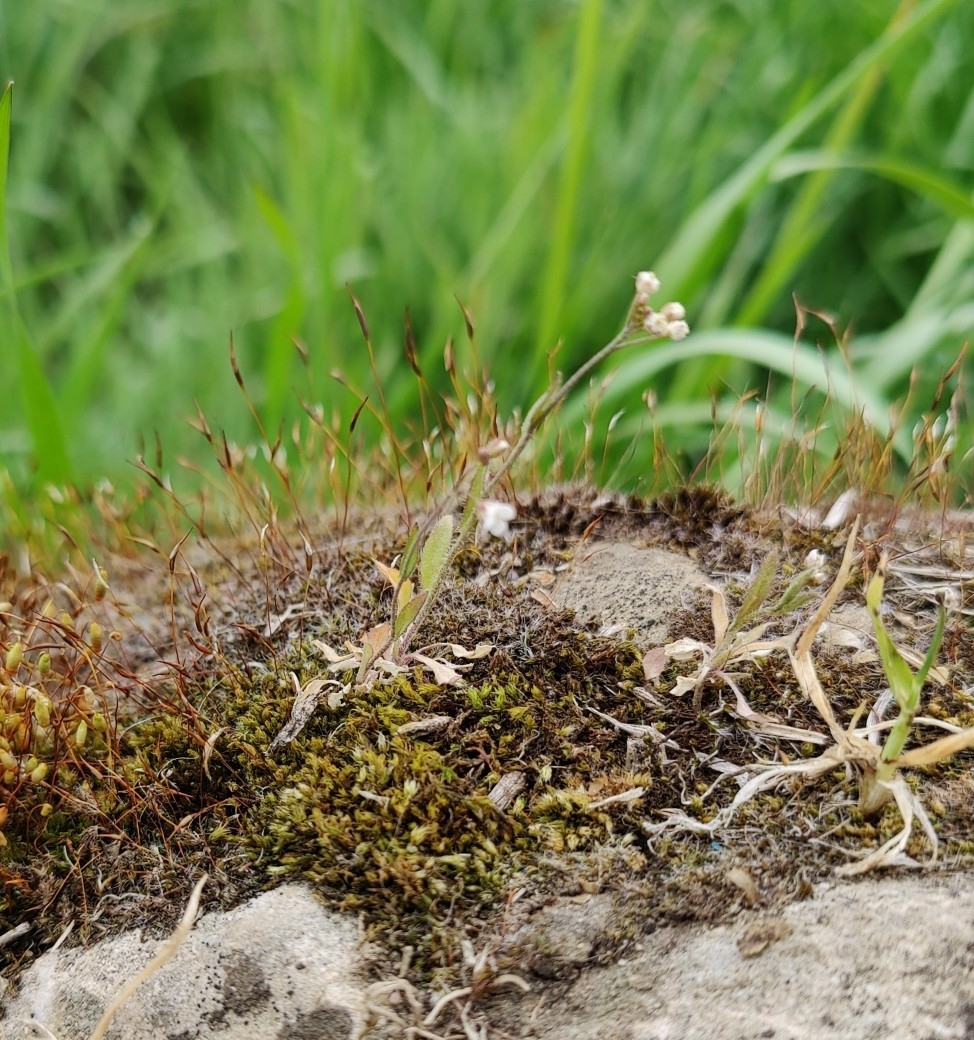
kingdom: Plantae
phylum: Tracheophyta
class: Magnoliopsida
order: Brassicales
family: Brassicaceae
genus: Draba
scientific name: Draba verna
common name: Spring draba
